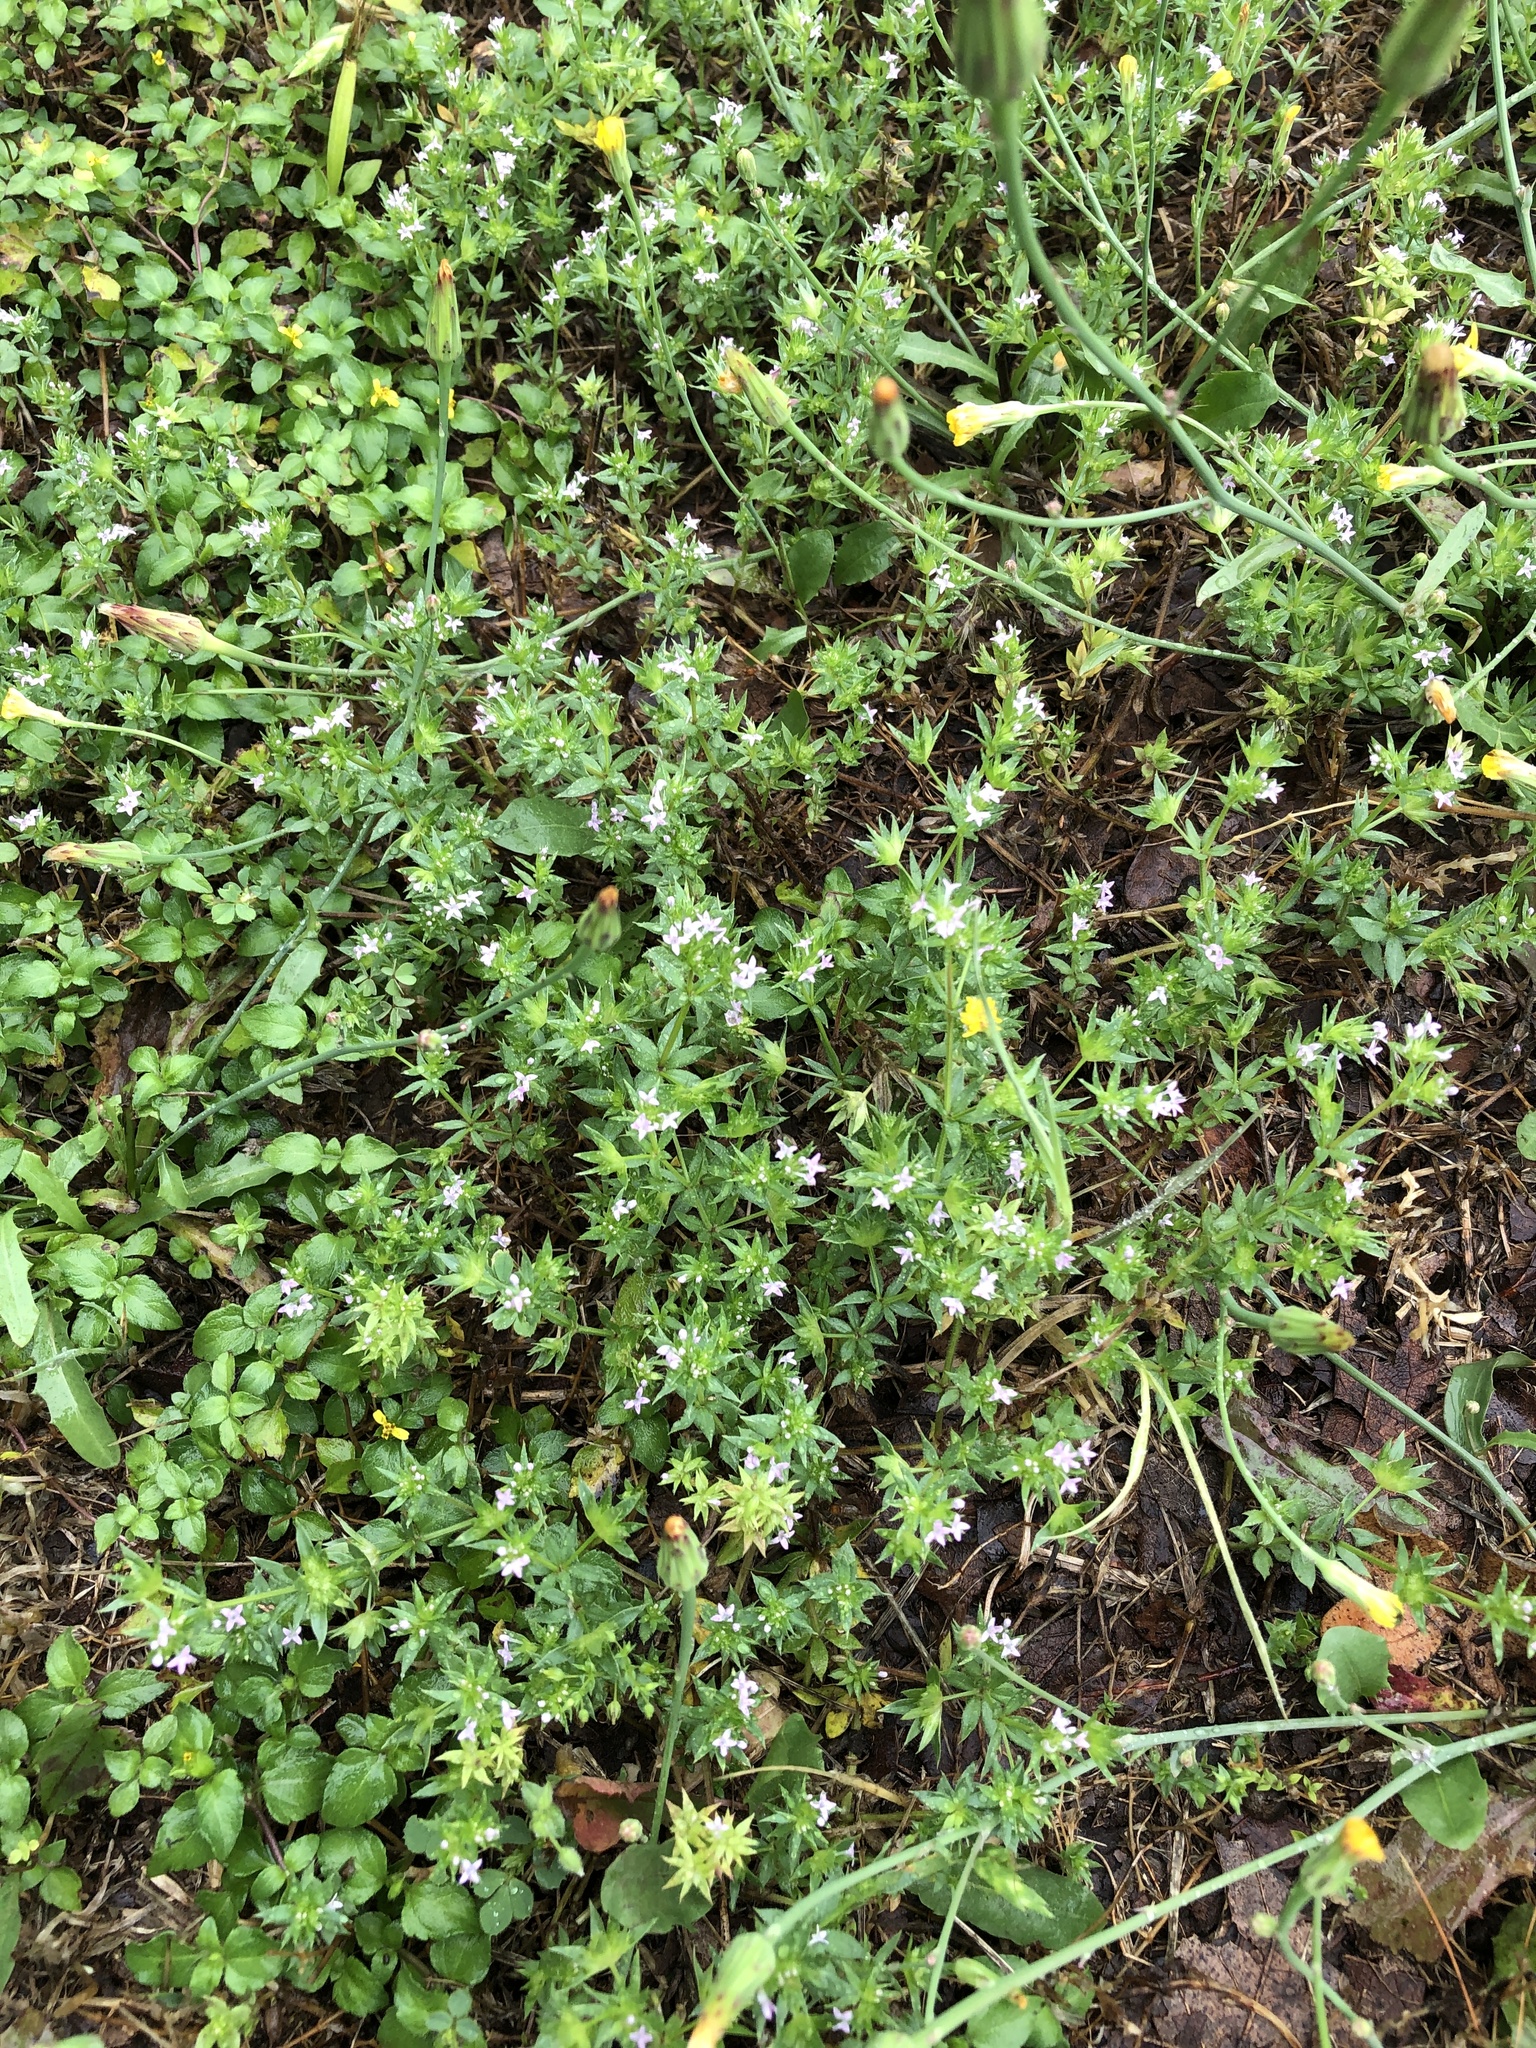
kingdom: Plantae
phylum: Tracheophyta
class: Magnoliopsida
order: Gentianales
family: Rubiaceae
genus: Sherardia
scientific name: Sherardia arvensis
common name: Field madder
